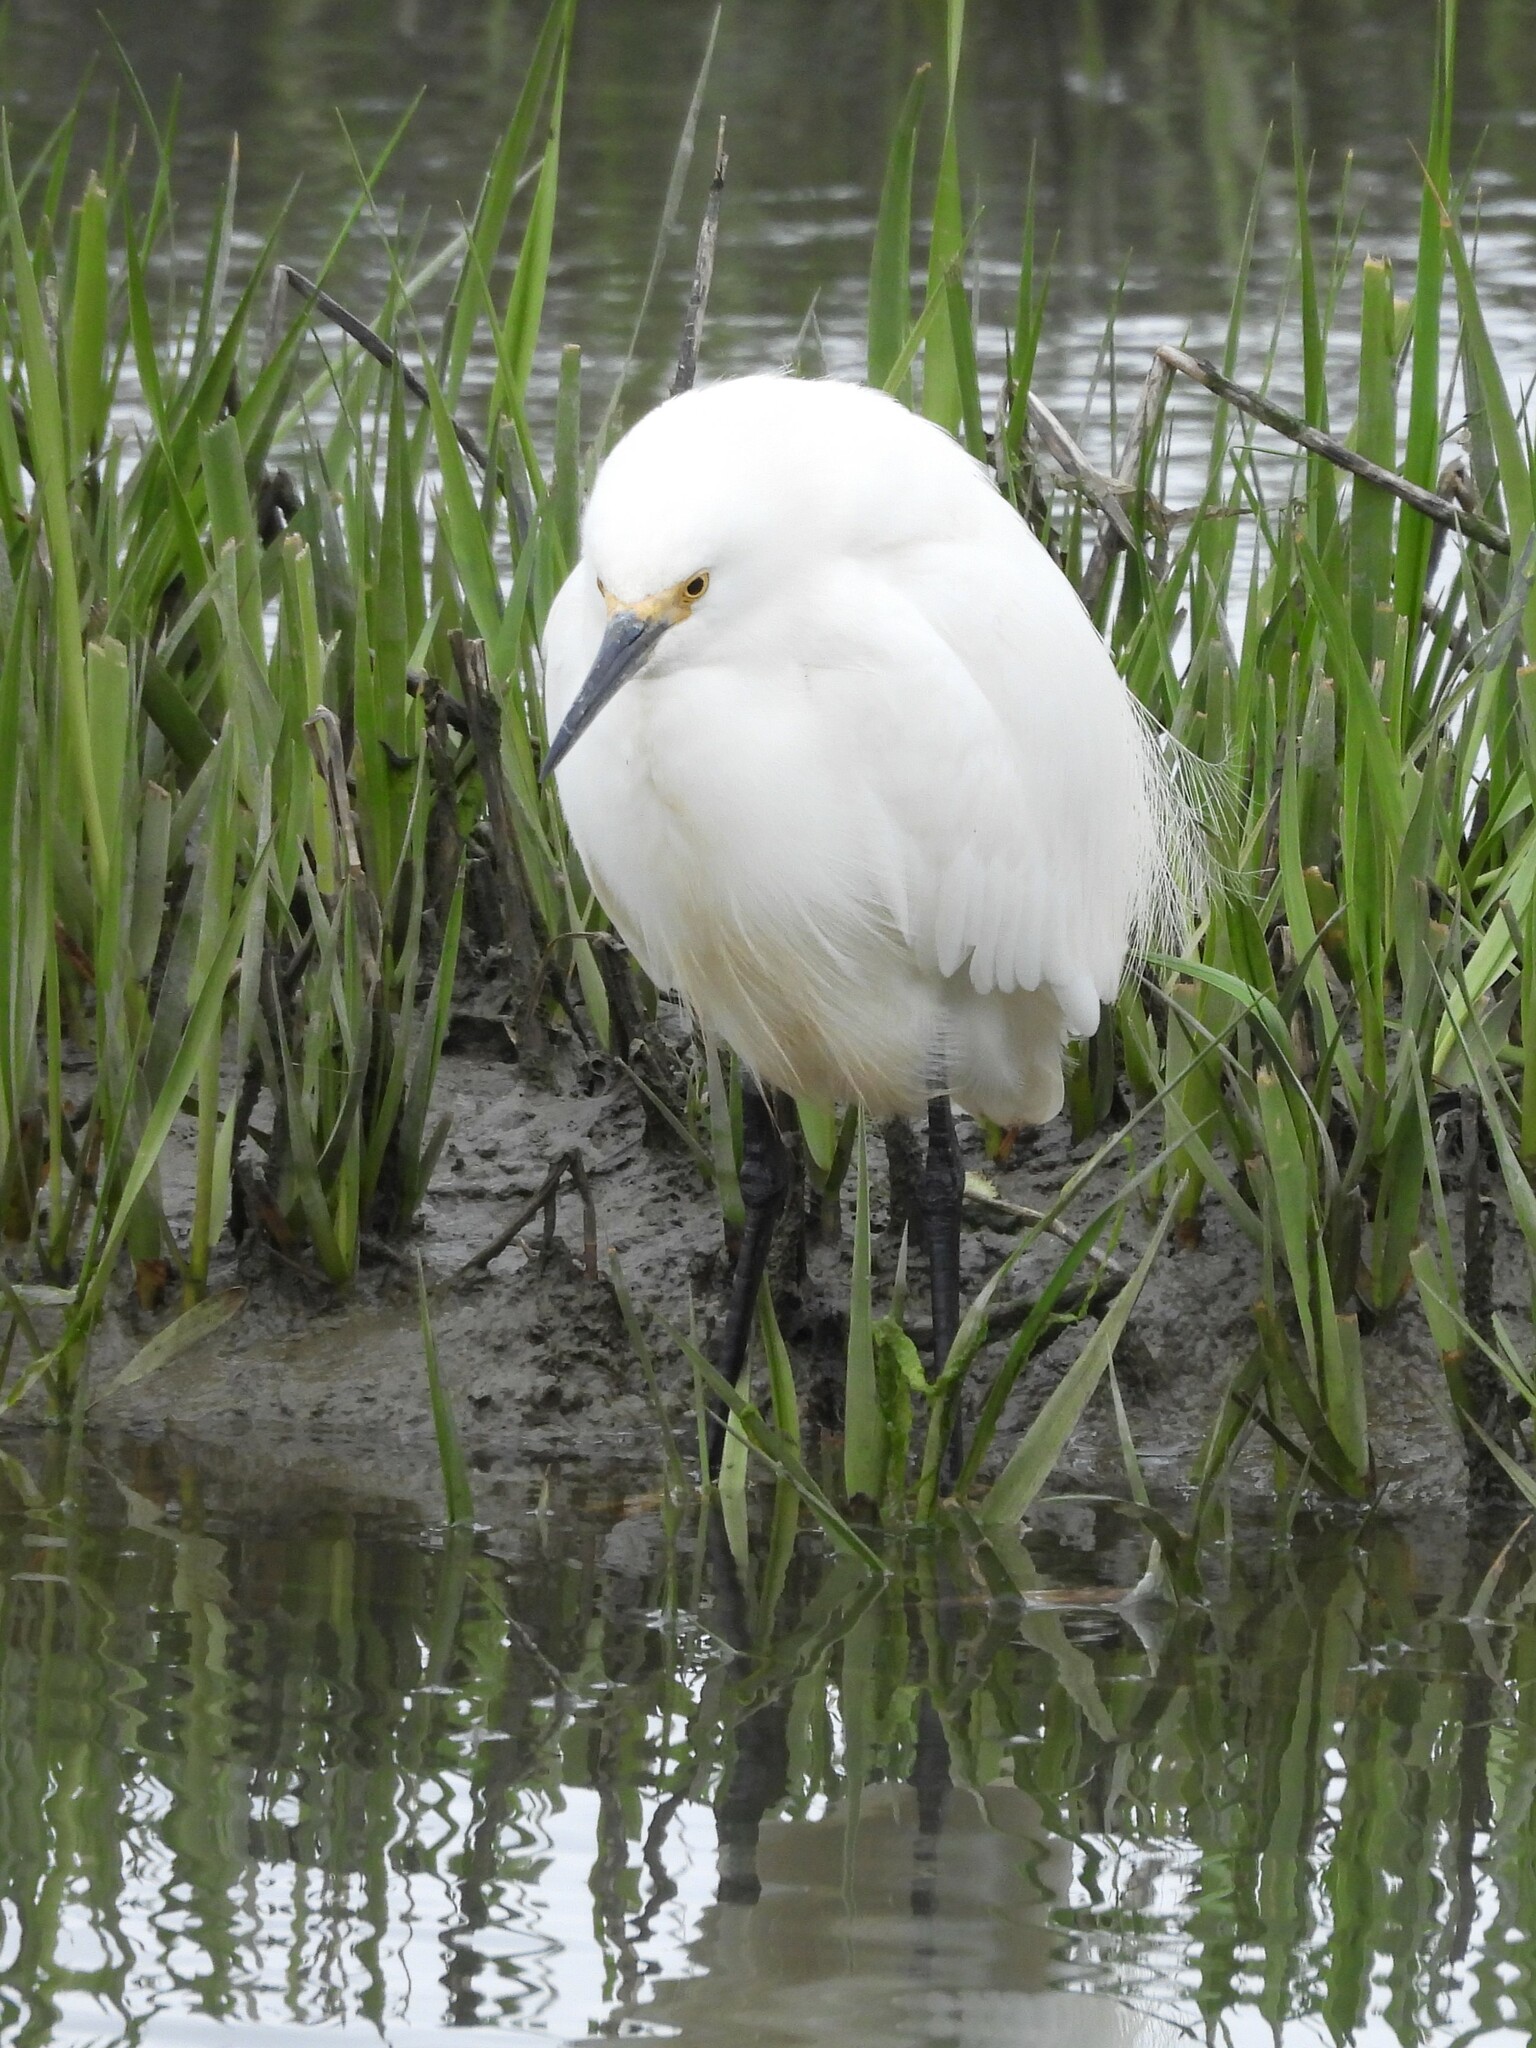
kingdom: Animalia
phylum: Chordata
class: Aves
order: Pelecaniformes
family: Ardeidae
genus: Egretta
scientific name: Egretta thula
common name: Snowy egret
